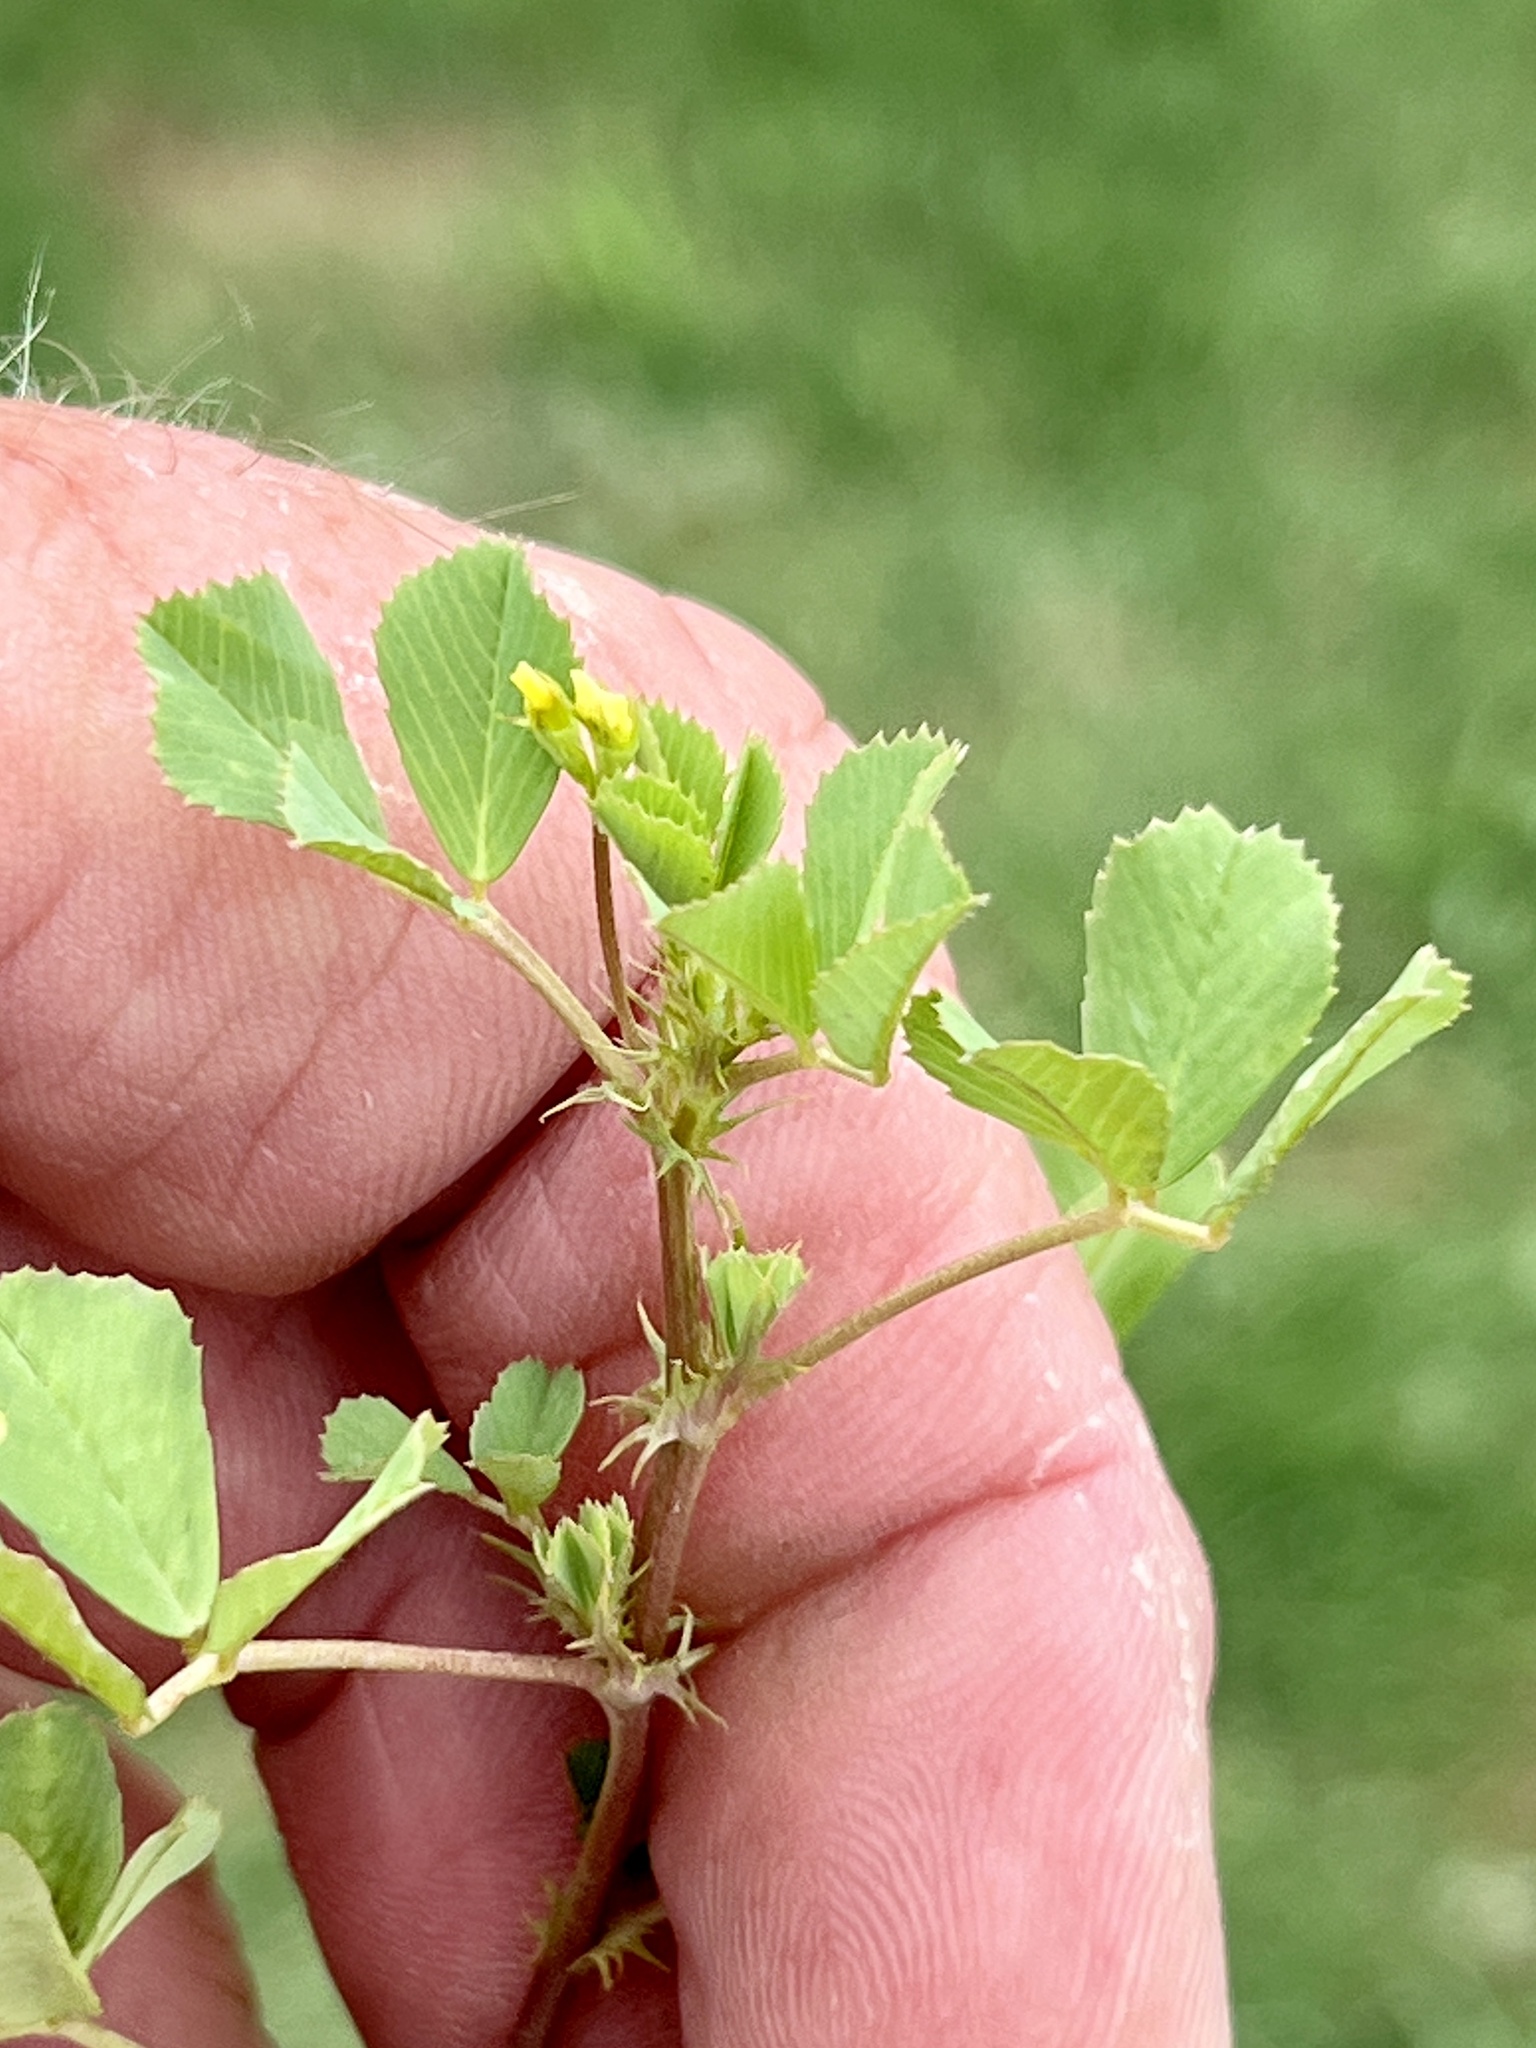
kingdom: Plantae
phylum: Tracheophyta
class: Magnoliopsida
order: Fabales
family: Fabaceae
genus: Medicago
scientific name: Medicago polymorpha
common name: Burclover
